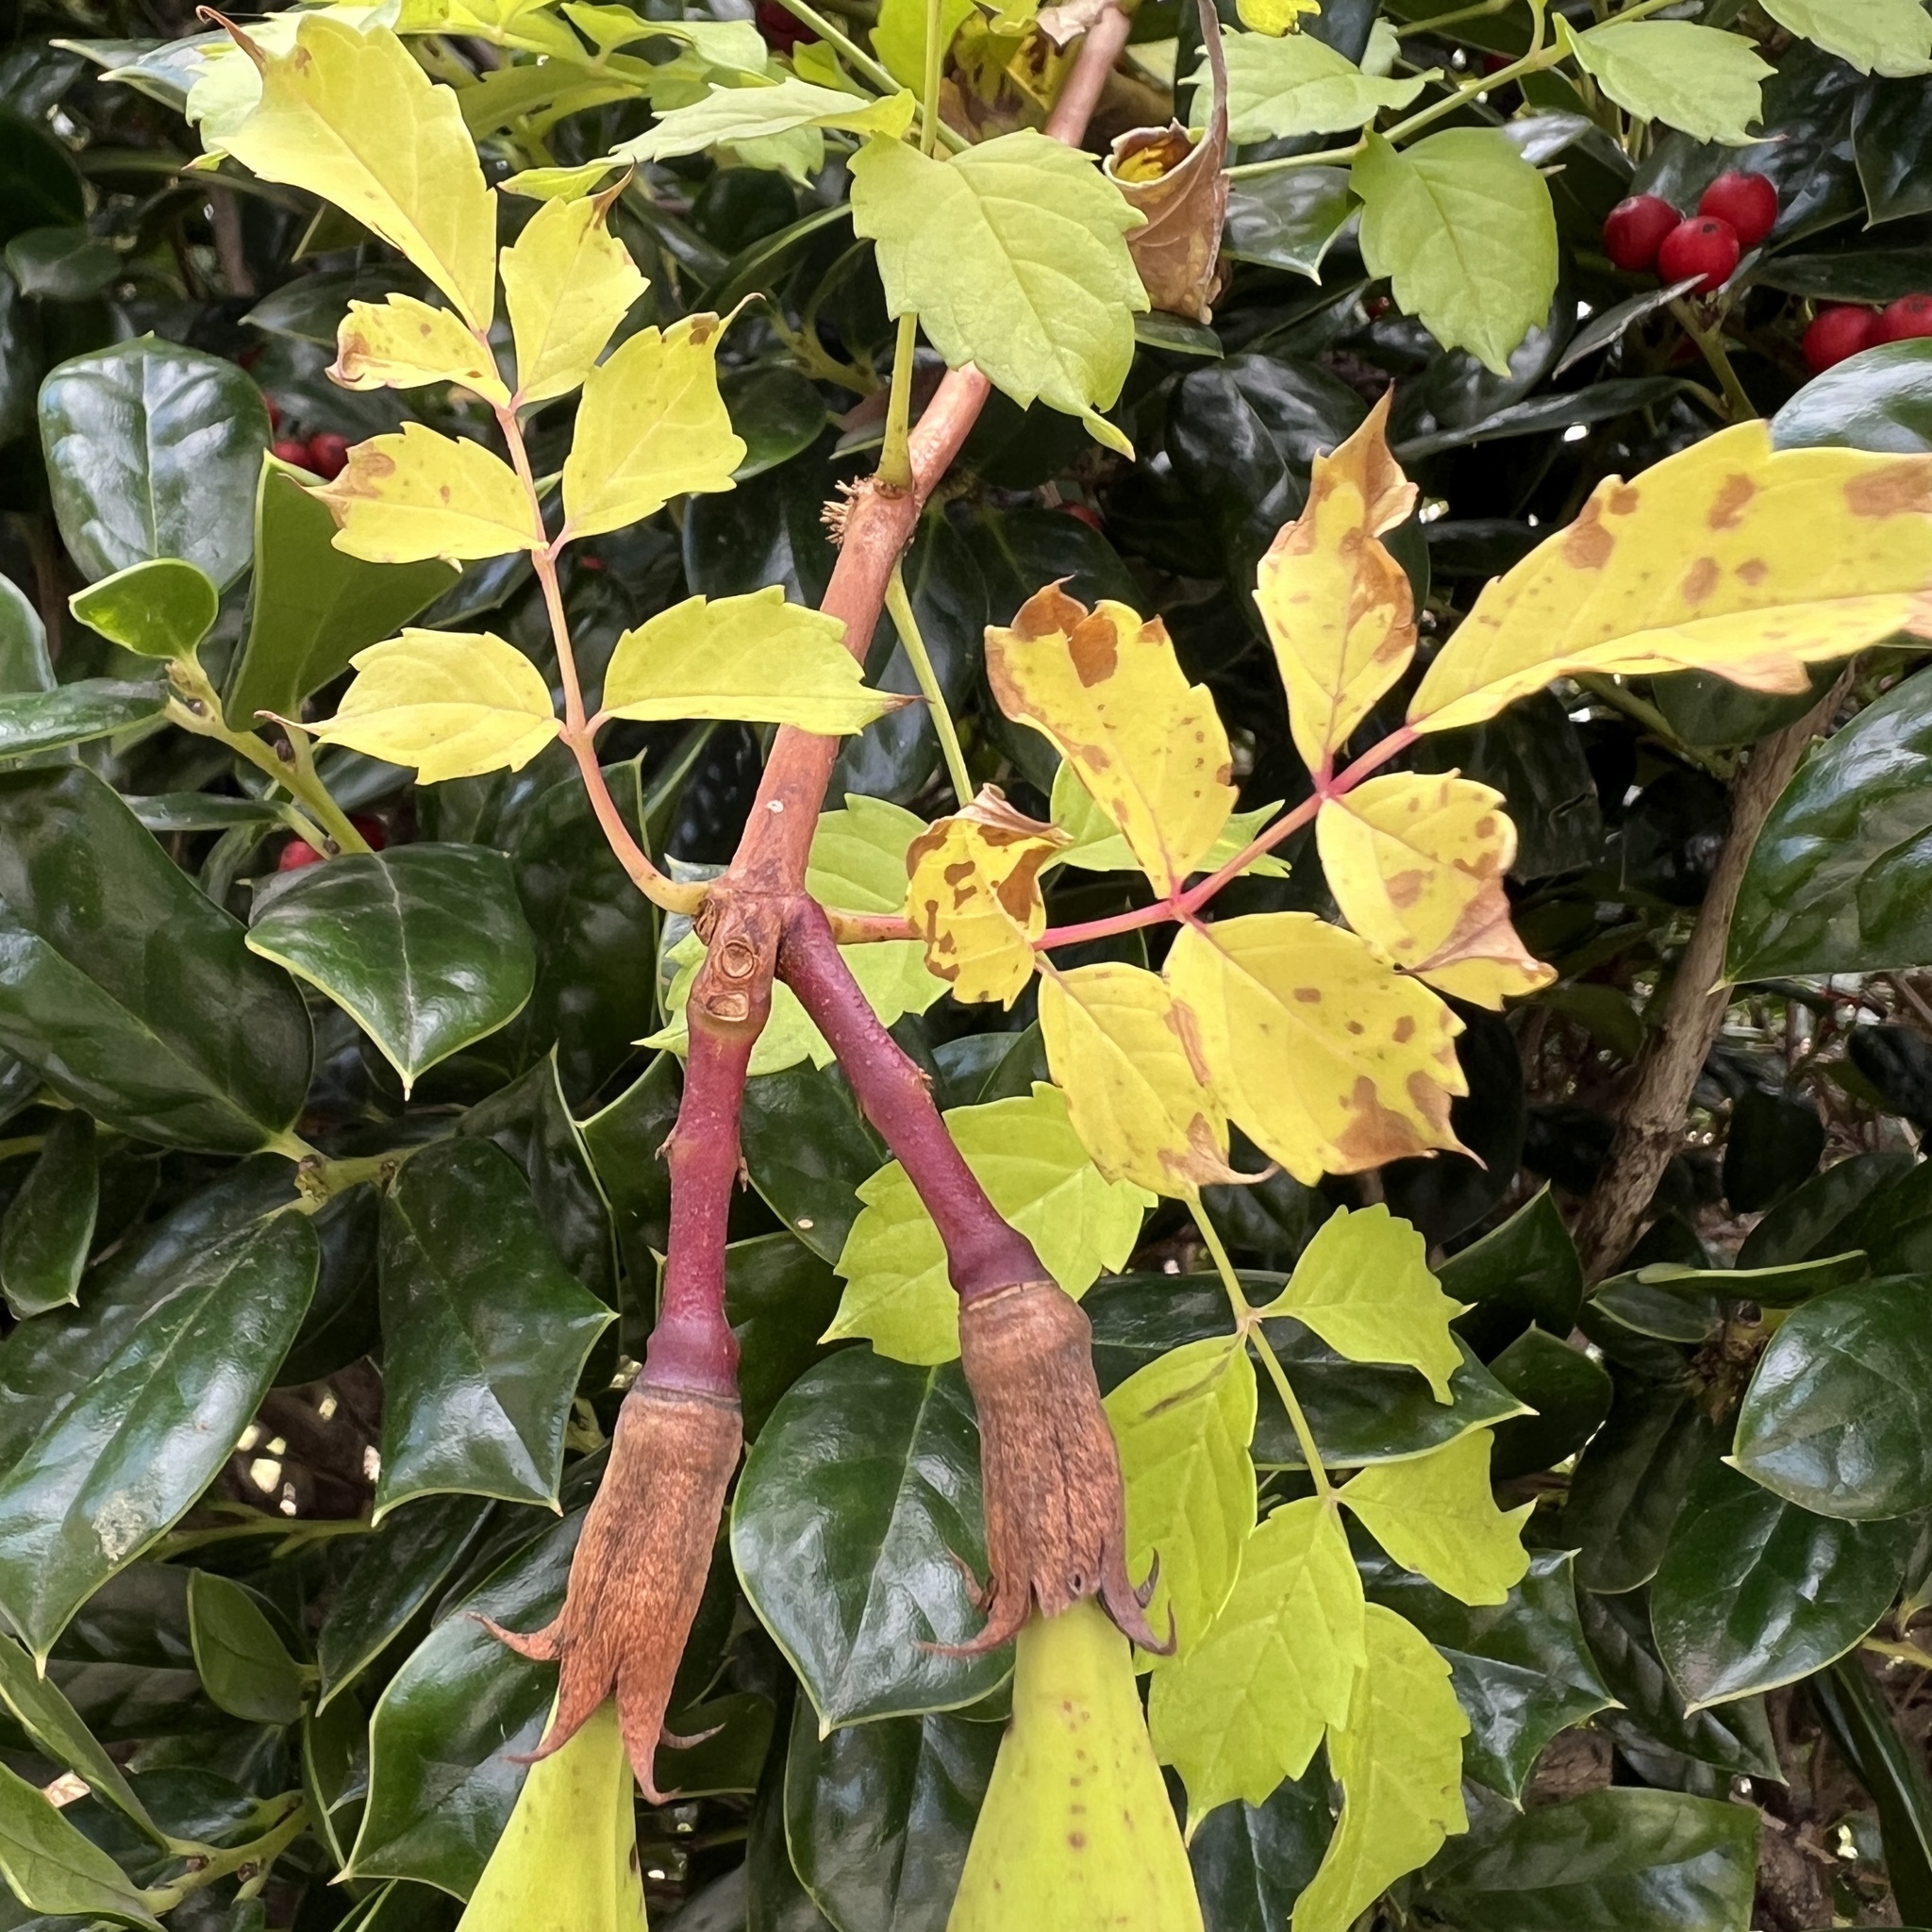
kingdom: Plantae
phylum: Tracheophyta
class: Magnoliopsida
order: Lamiales
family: Bignoniaceae
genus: Campsis
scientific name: Campsis radicans
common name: Trumpet-creeper
